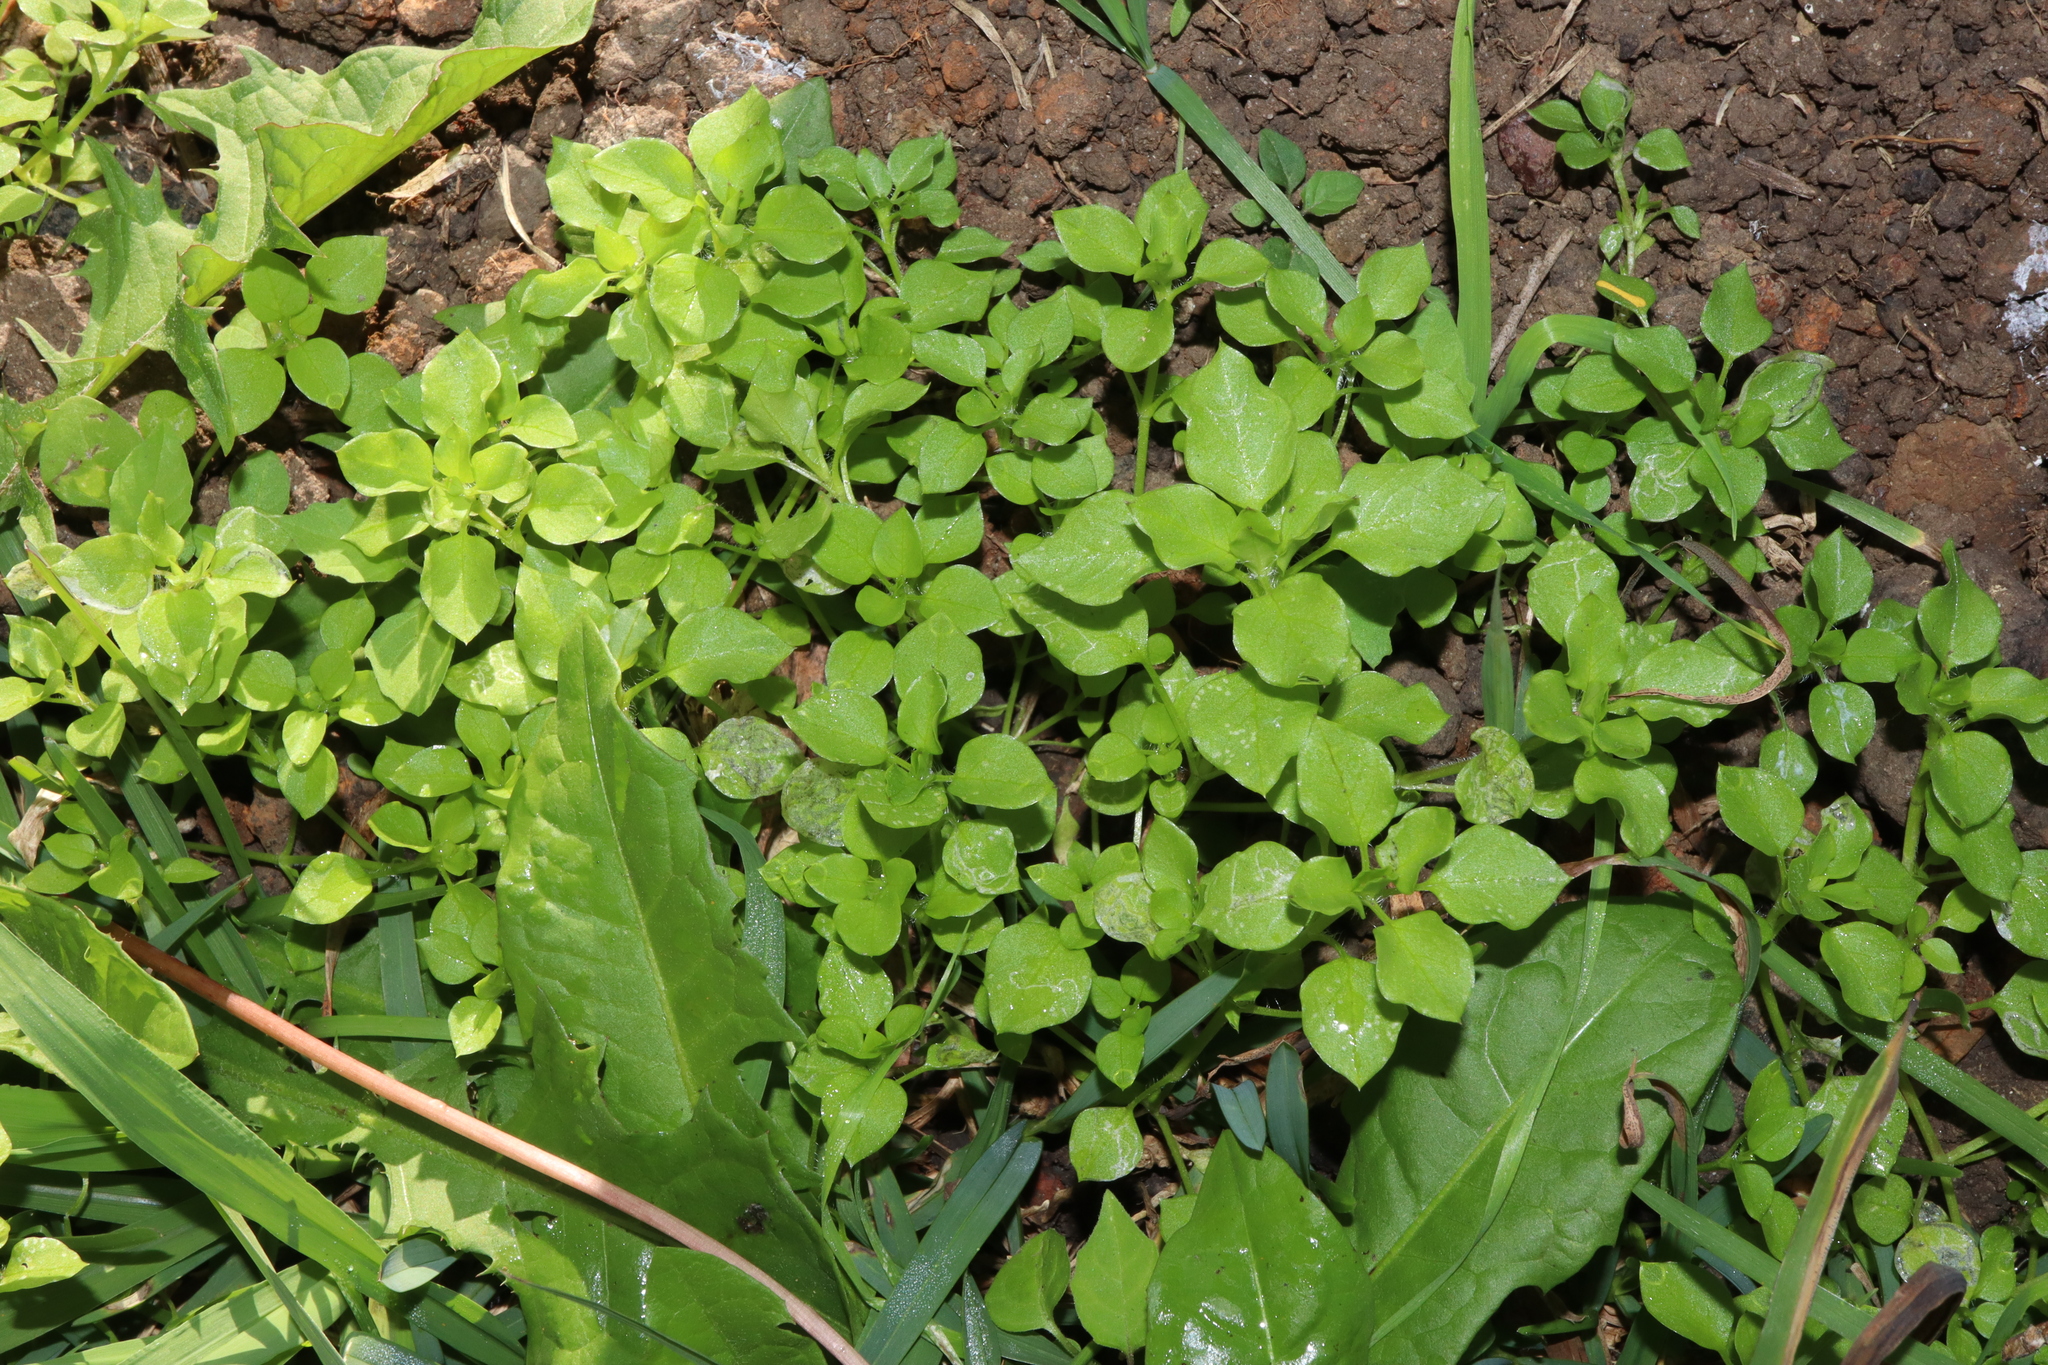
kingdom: Plantae
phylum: Tracheophyta
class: Magnoliopsida
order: Caryophyllales
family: Caryophyllaceae
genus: Stellaria
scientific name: Stellaria media
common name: Common chickweed
